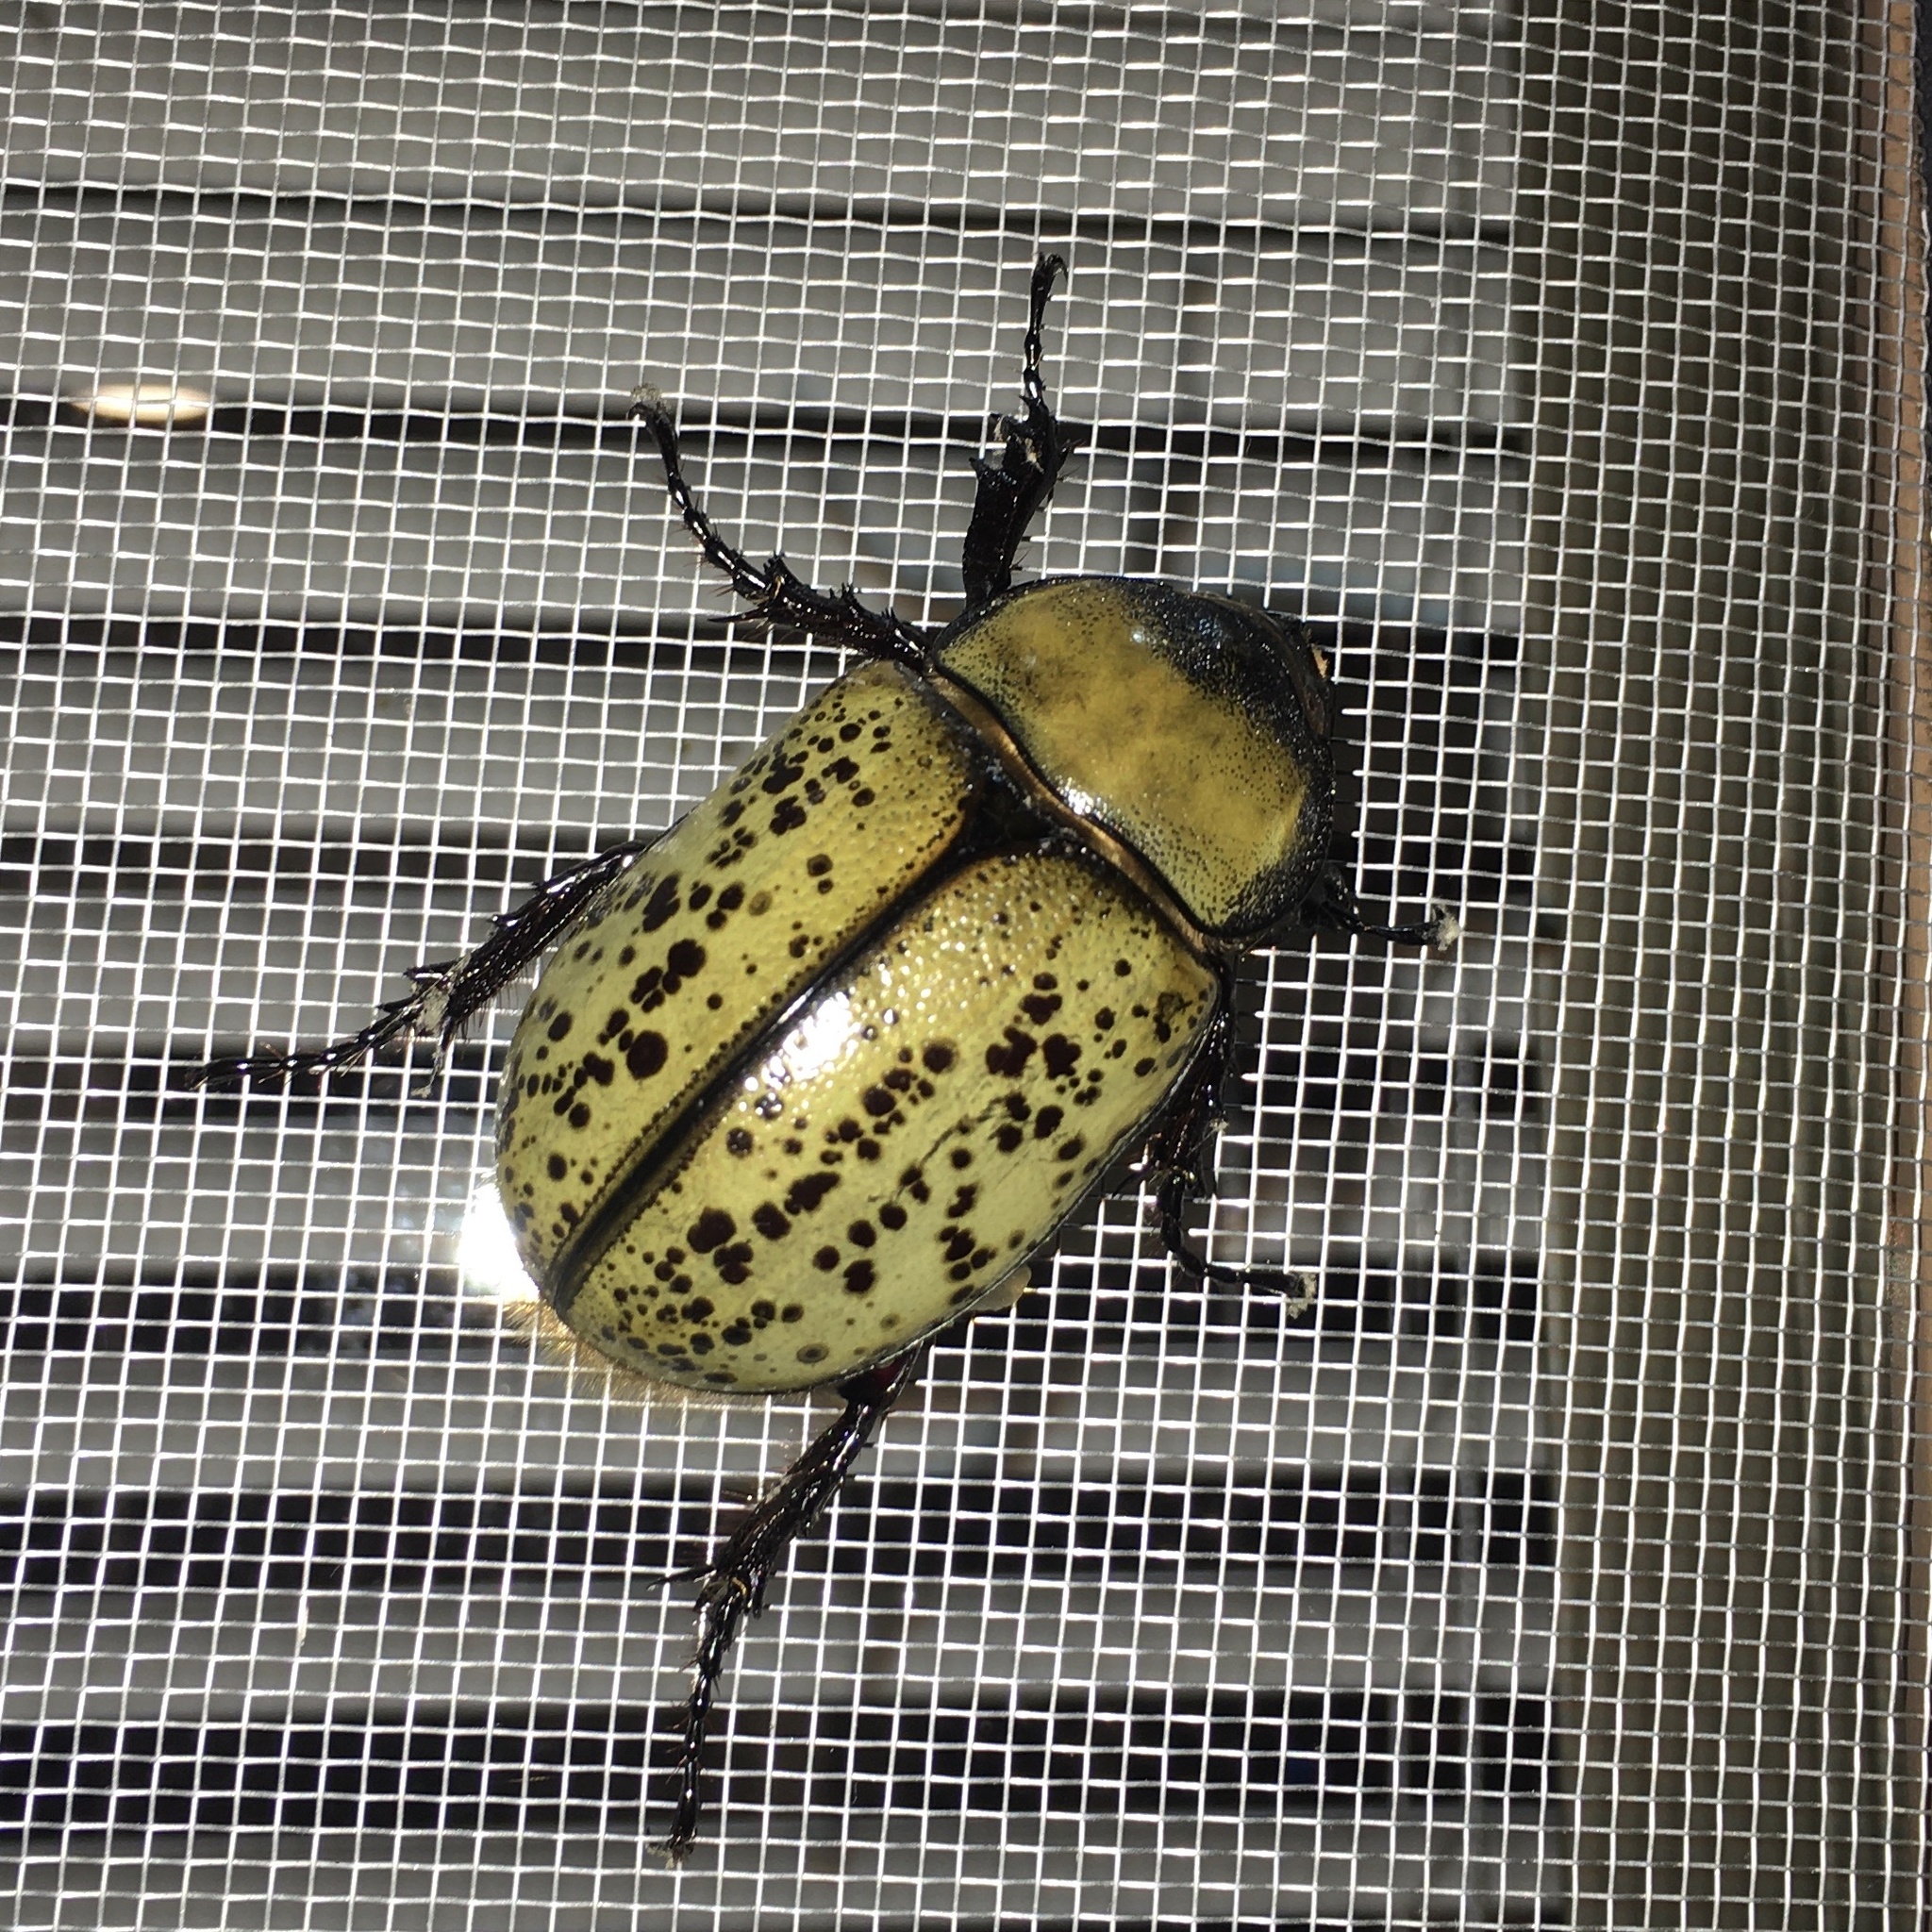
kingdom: Animalia
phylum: Arthropoda
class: Insecta
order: Coleoptera
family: Scarabaeidae
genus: Dynastes
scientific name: Dynastes tityus
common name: Eastern hercules beetle
